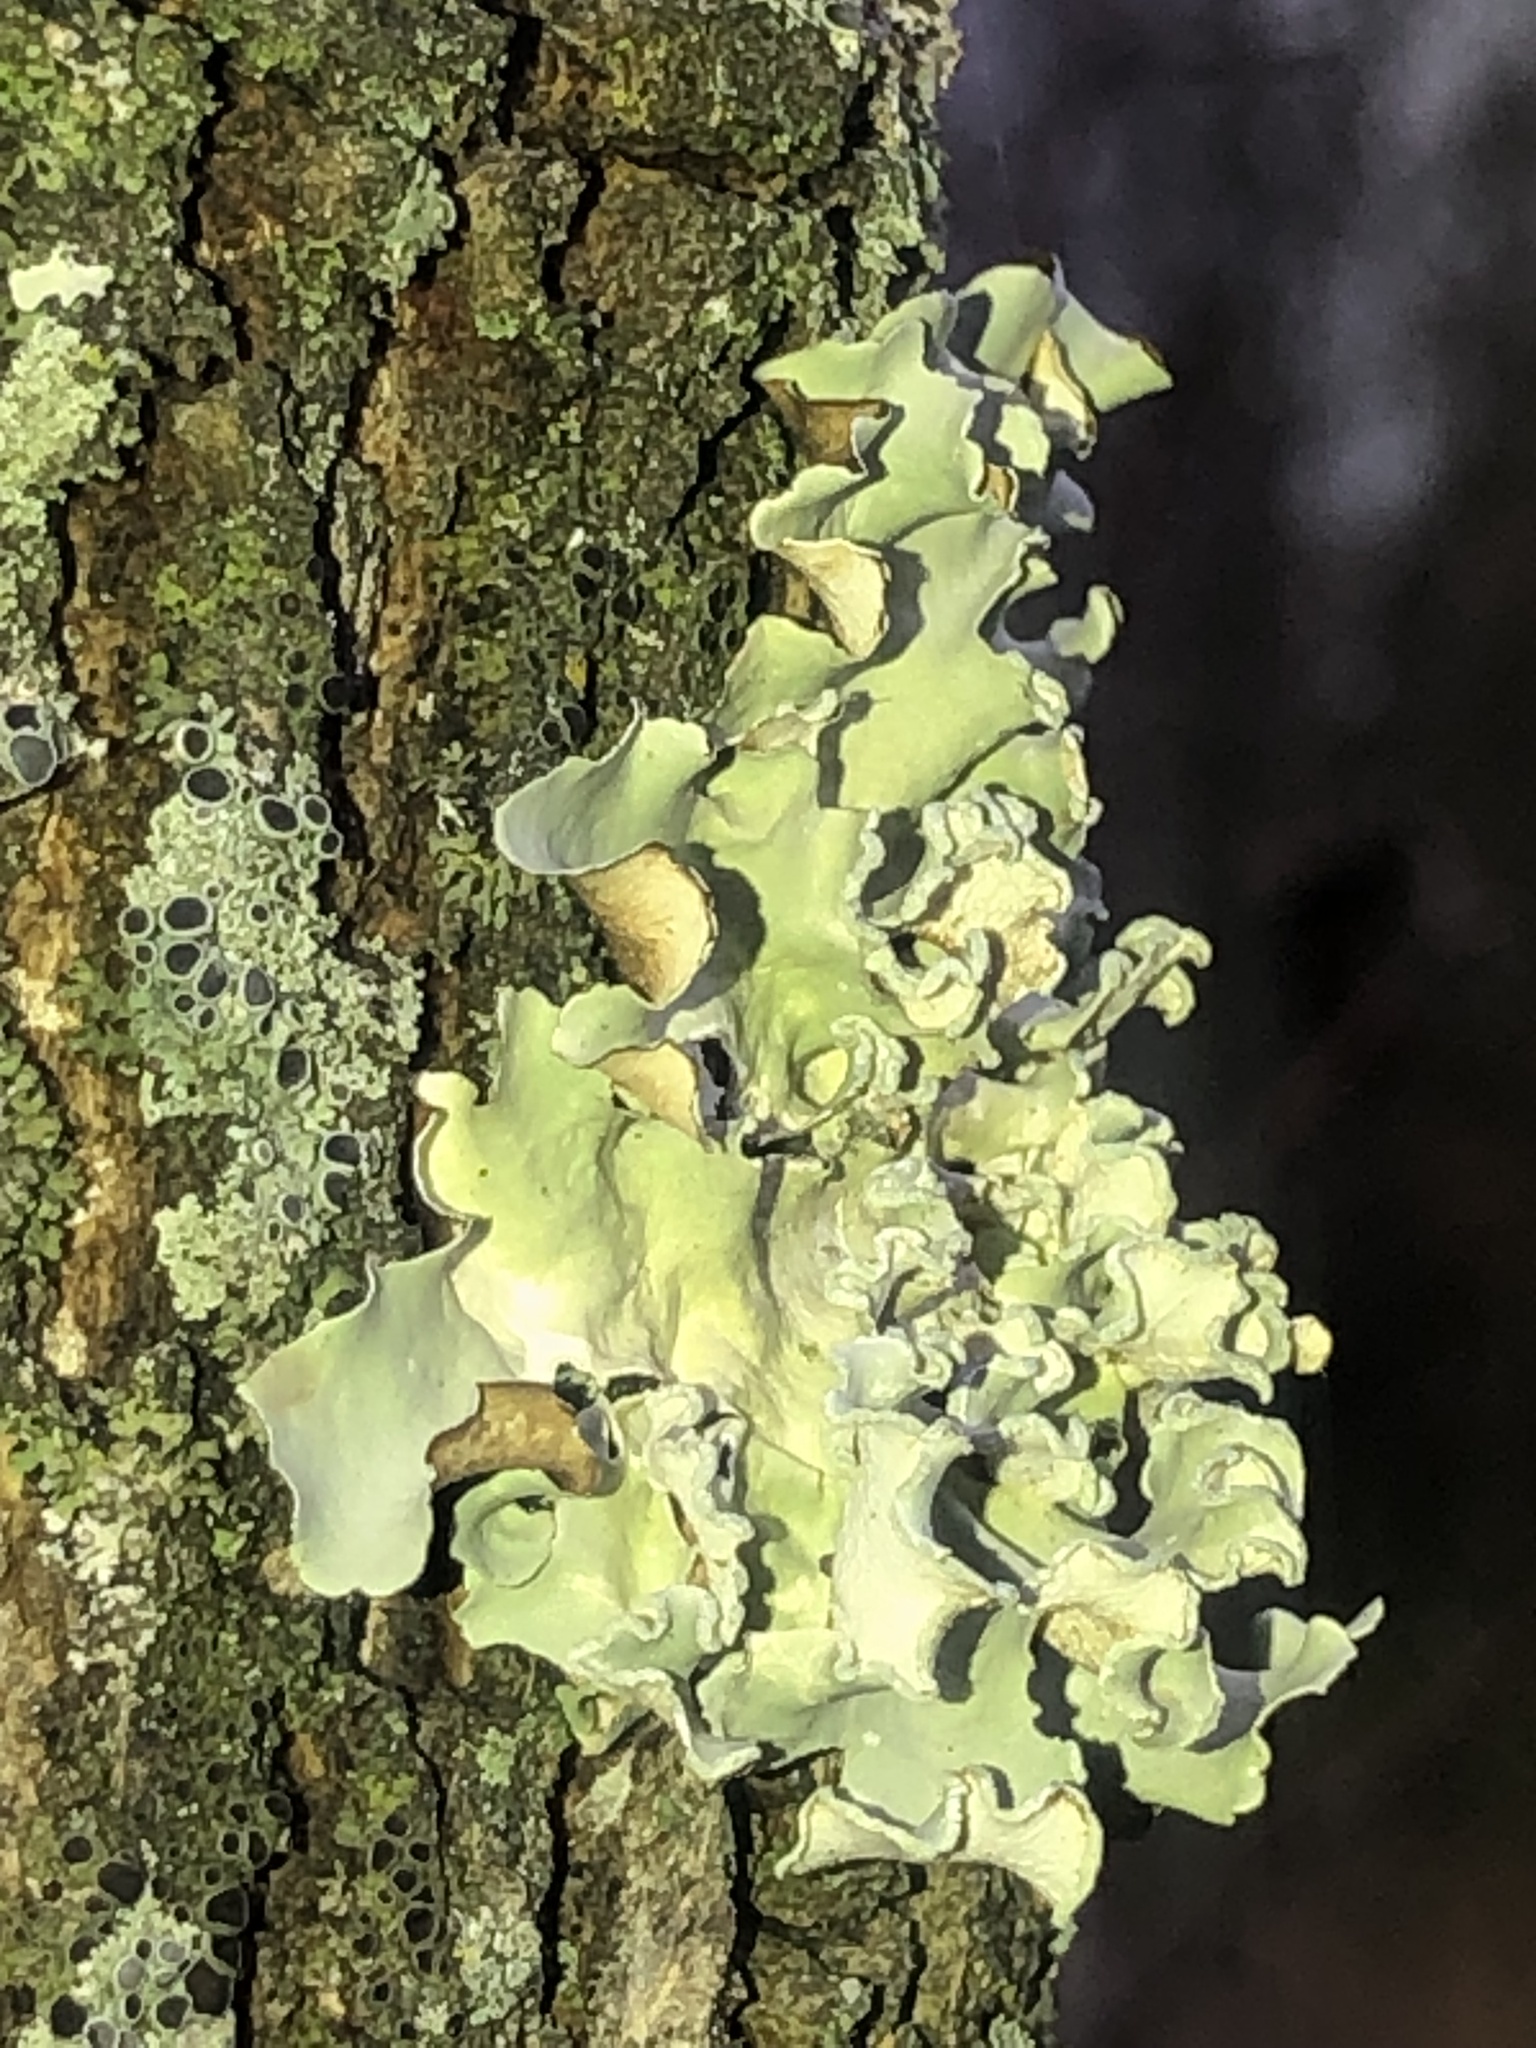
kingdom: Fungi
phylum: Ascomycota
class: Lecanoromycetes
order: Lecanorales
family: Parmeliaceae
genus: Parmotrema
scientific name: Parmotrema austrosinense
